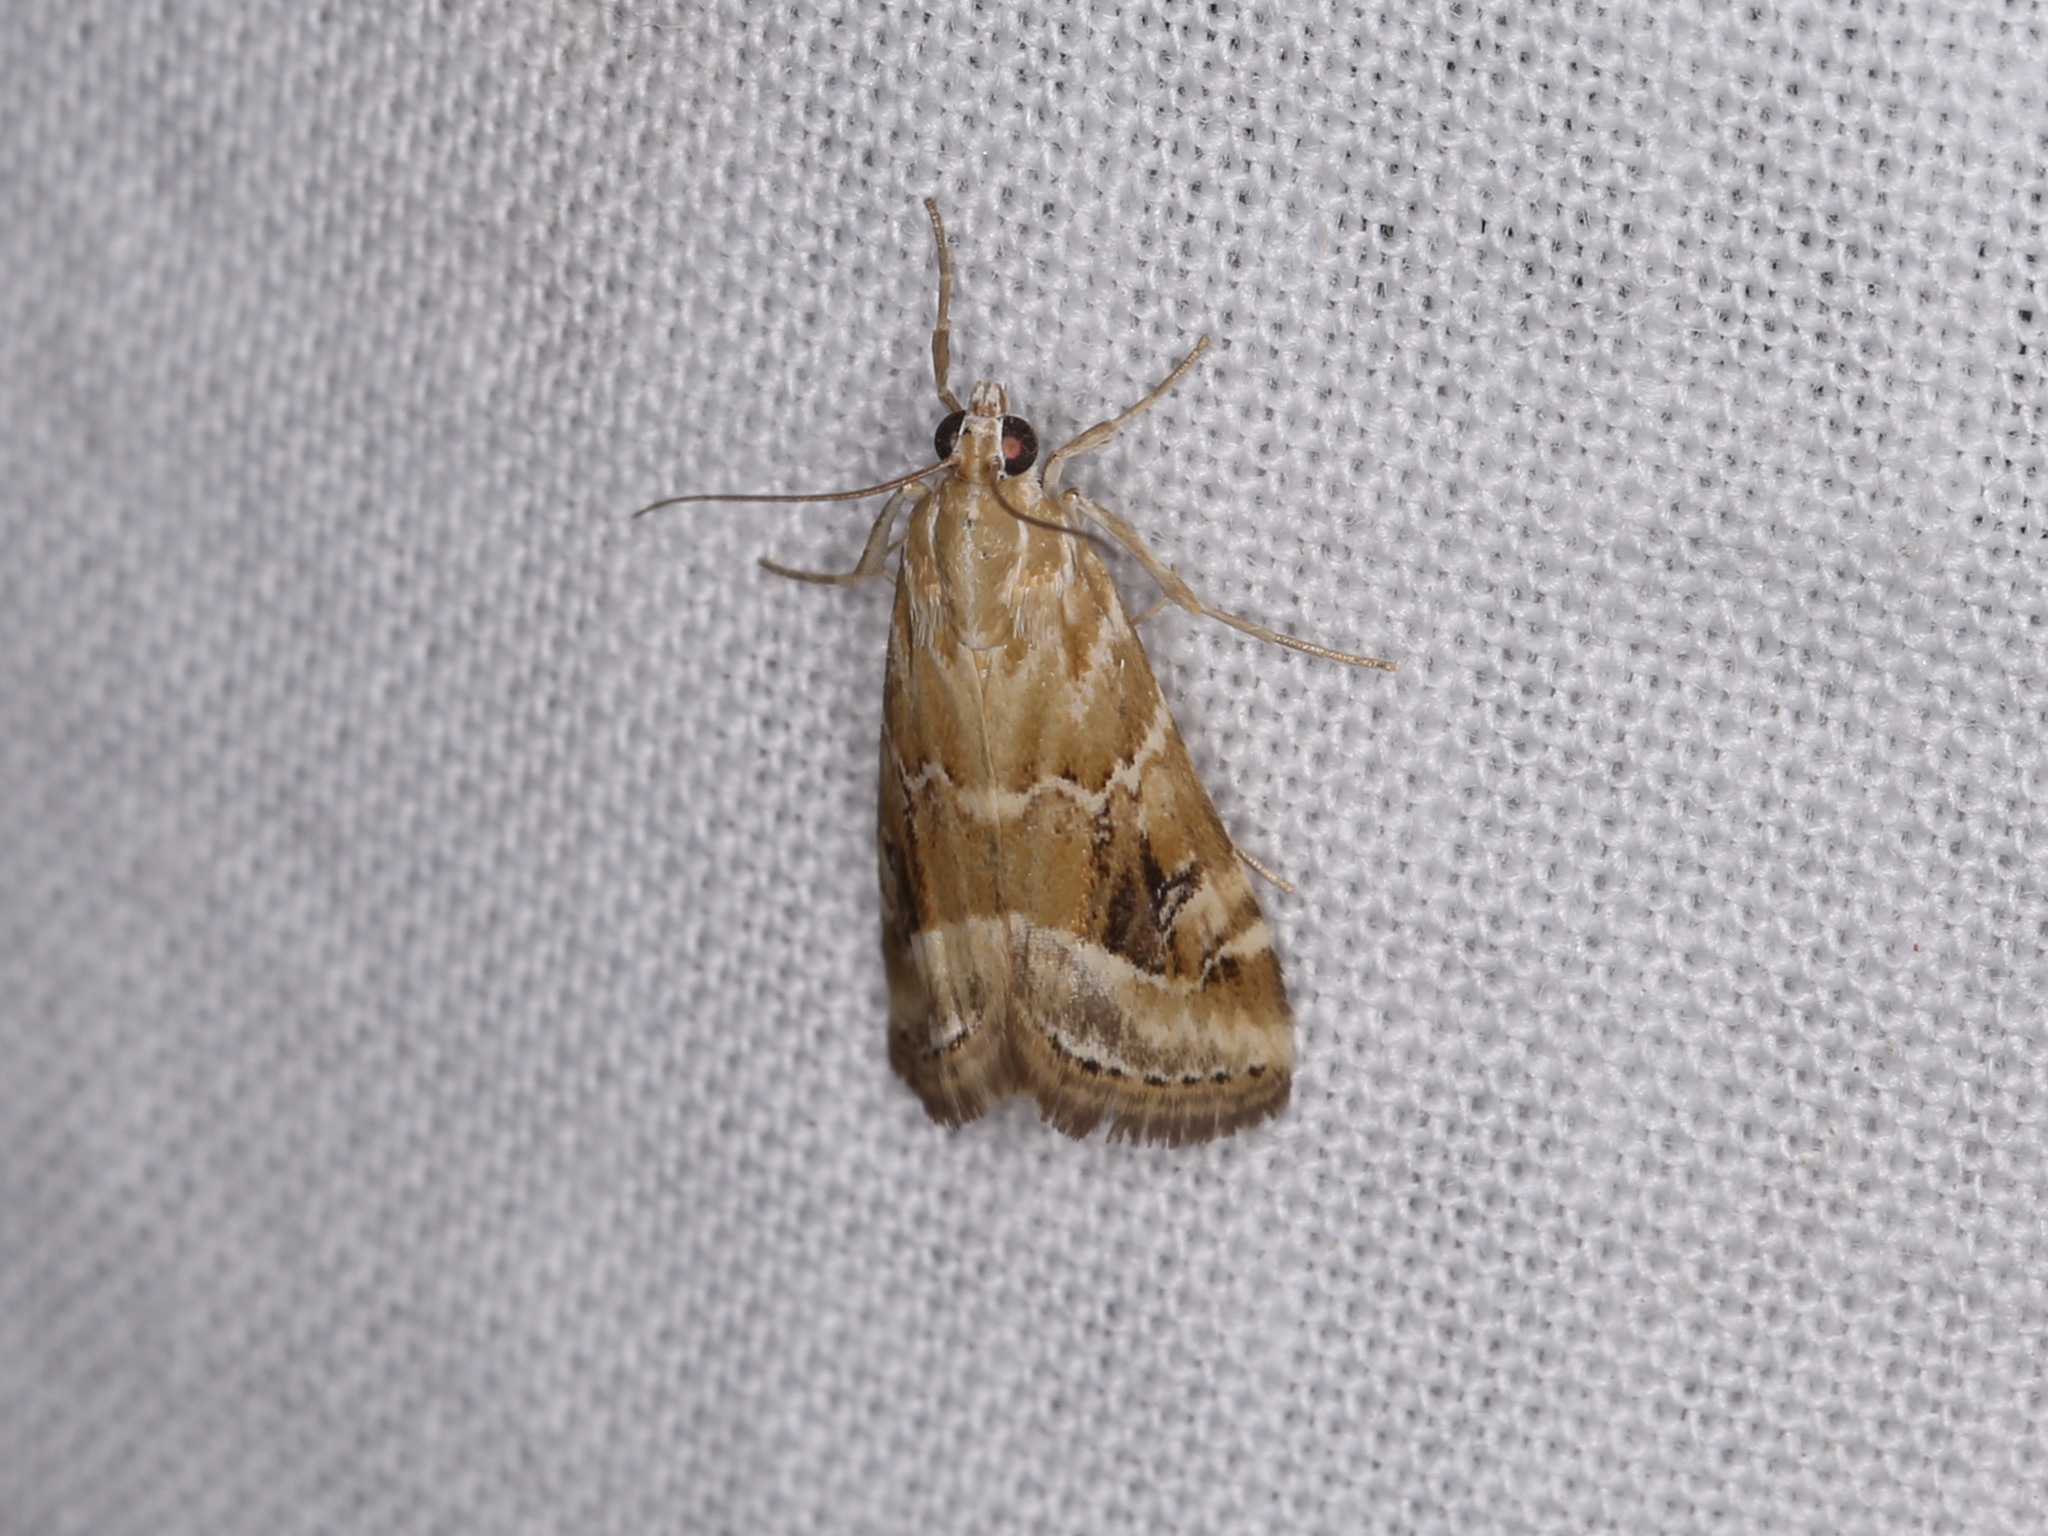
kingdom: Animalia
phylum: Arthropoda
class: Insecta
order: Lepidoptera
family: Crambidae
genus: Hellula
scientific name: Hellula hydralis
